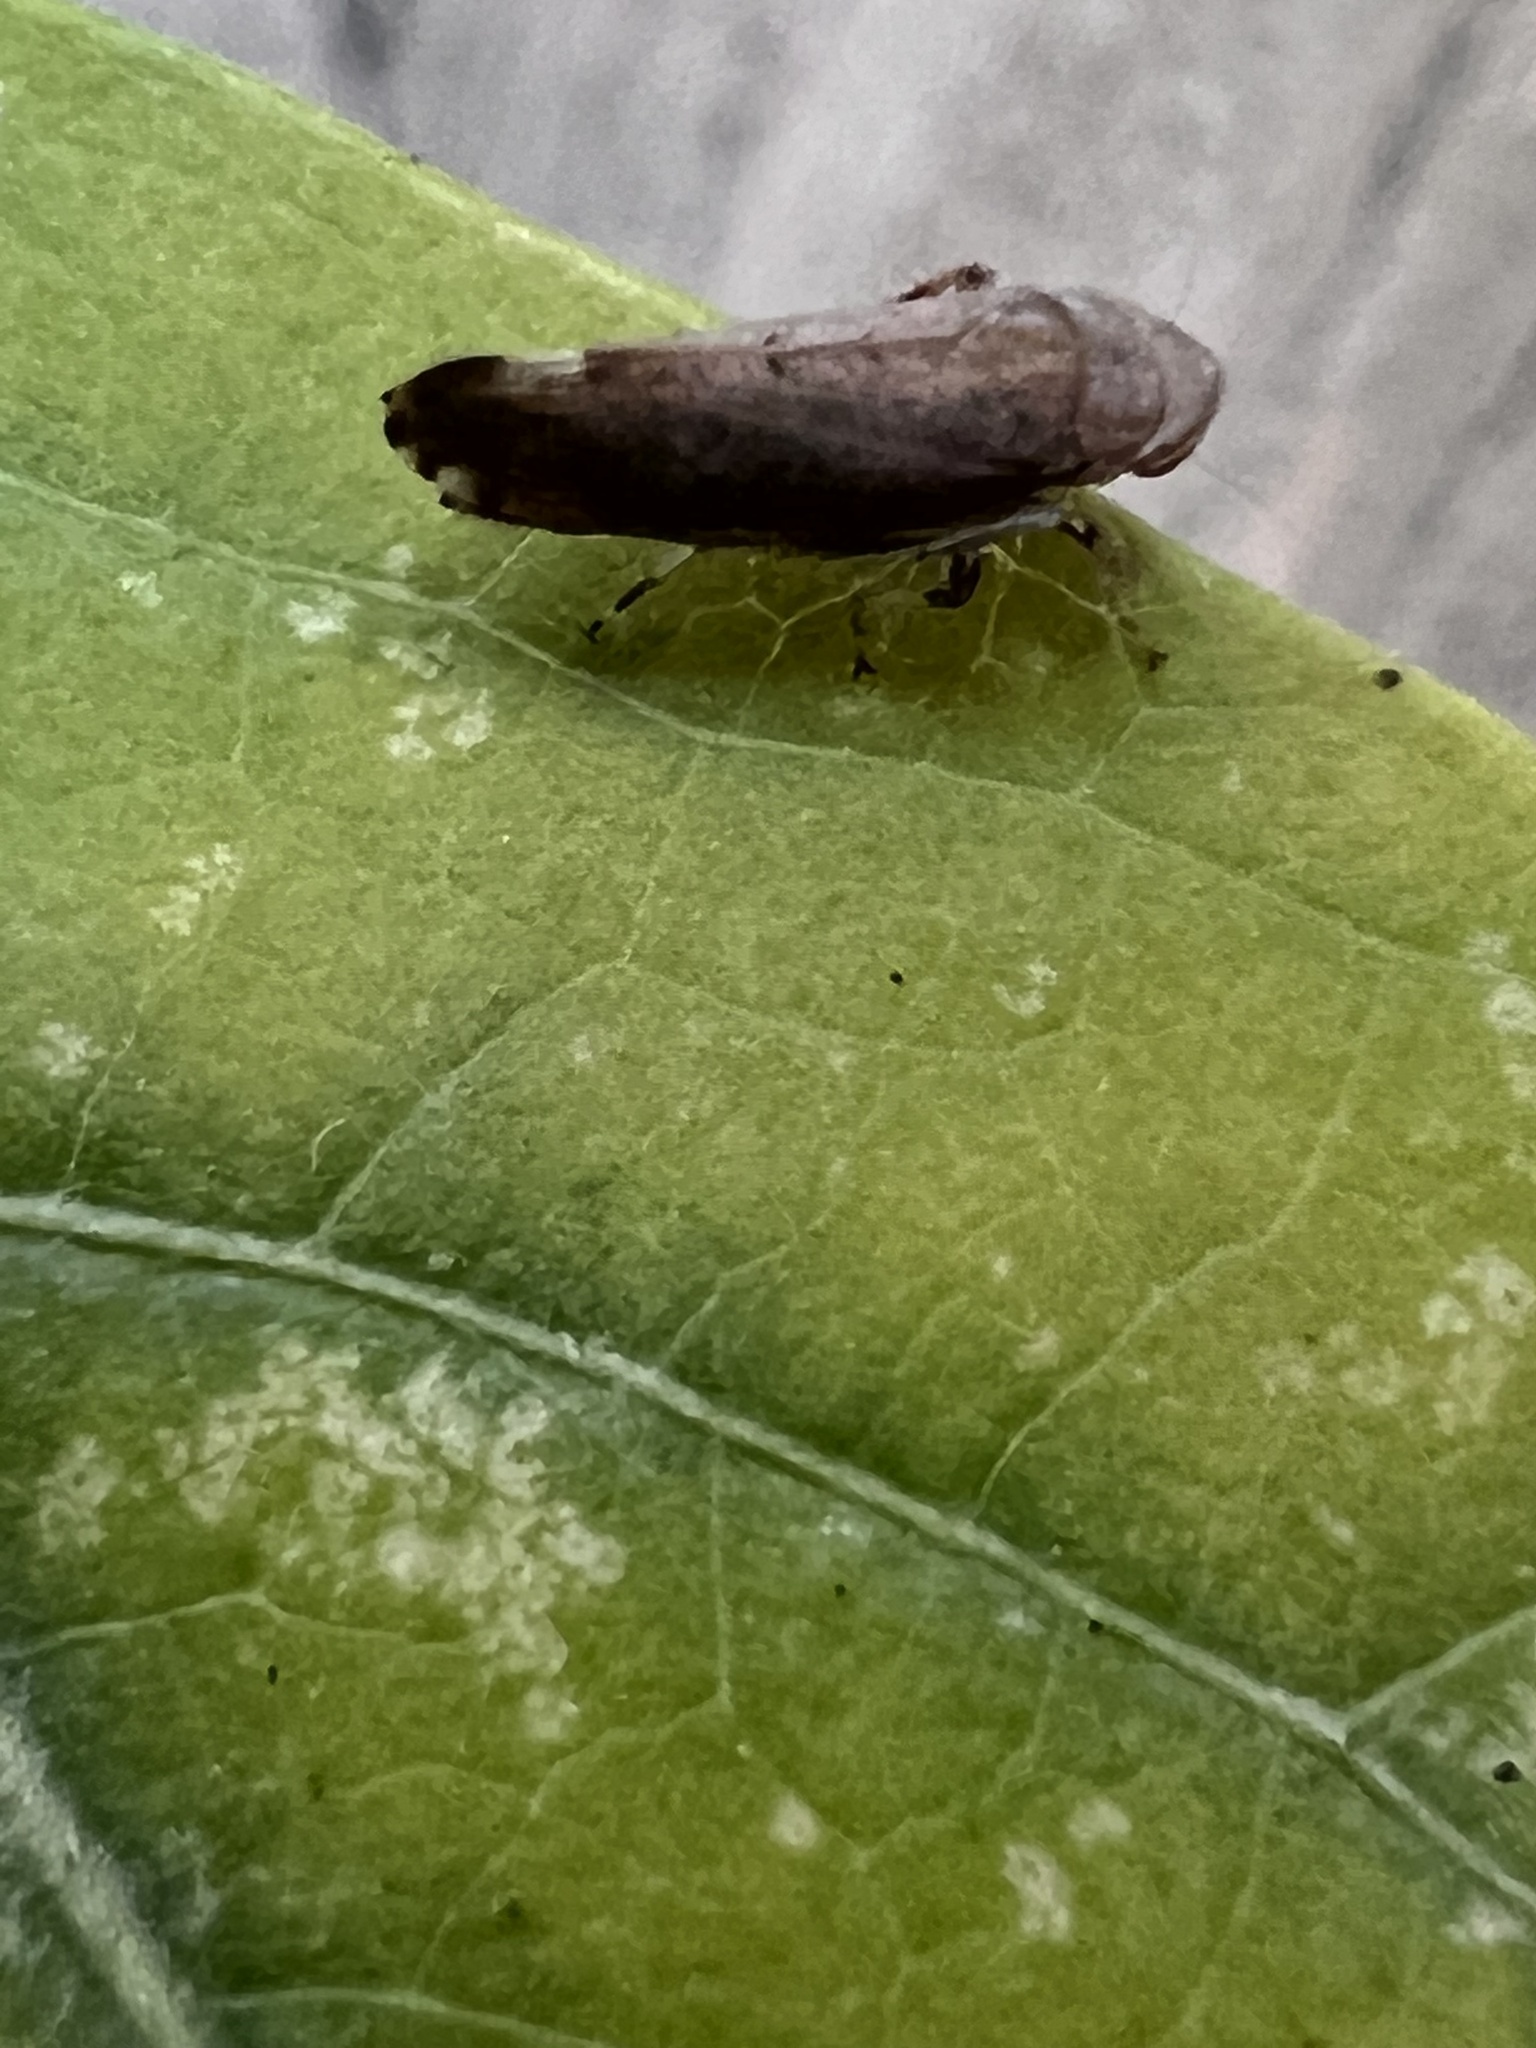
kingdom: Animalia
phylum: Arthropoda
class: Insecta
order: Hemiptera
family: Cicadellidae
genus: Fieberiella
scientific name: Fieberiella florii
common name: Flor’s leafhopper
